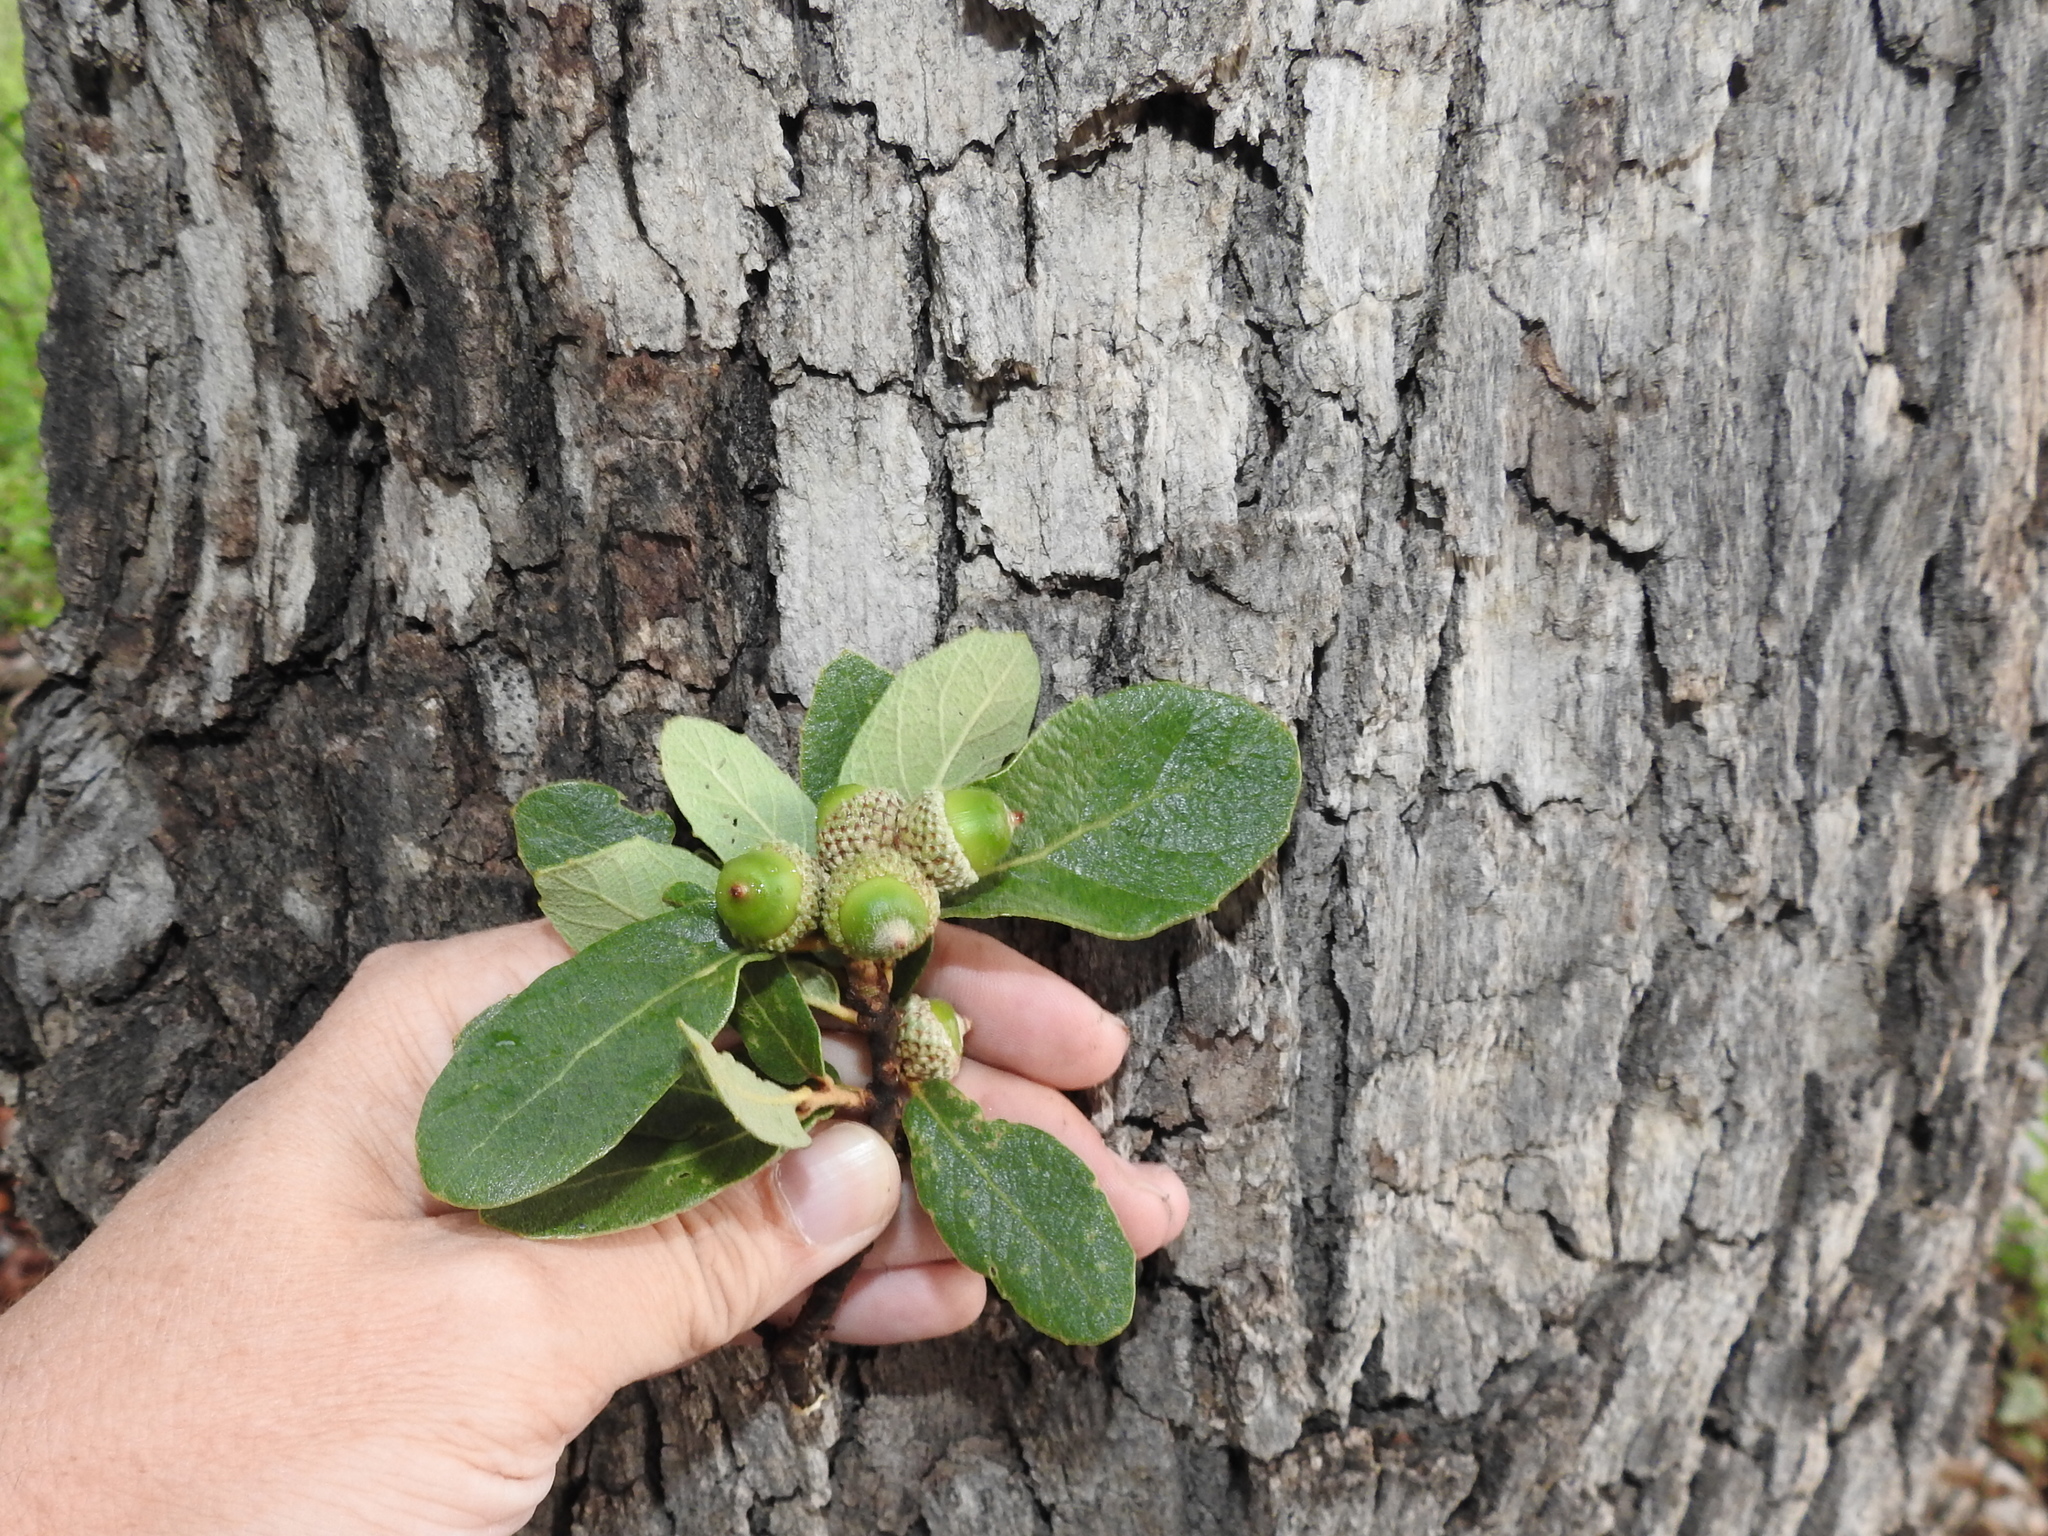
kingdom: Plantae
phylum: Tracheophyta
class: Magnoliopsida
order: Fagales
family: Fagaceae
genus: Quercus
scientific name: Quercus rugosa
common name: Netleaf oak
